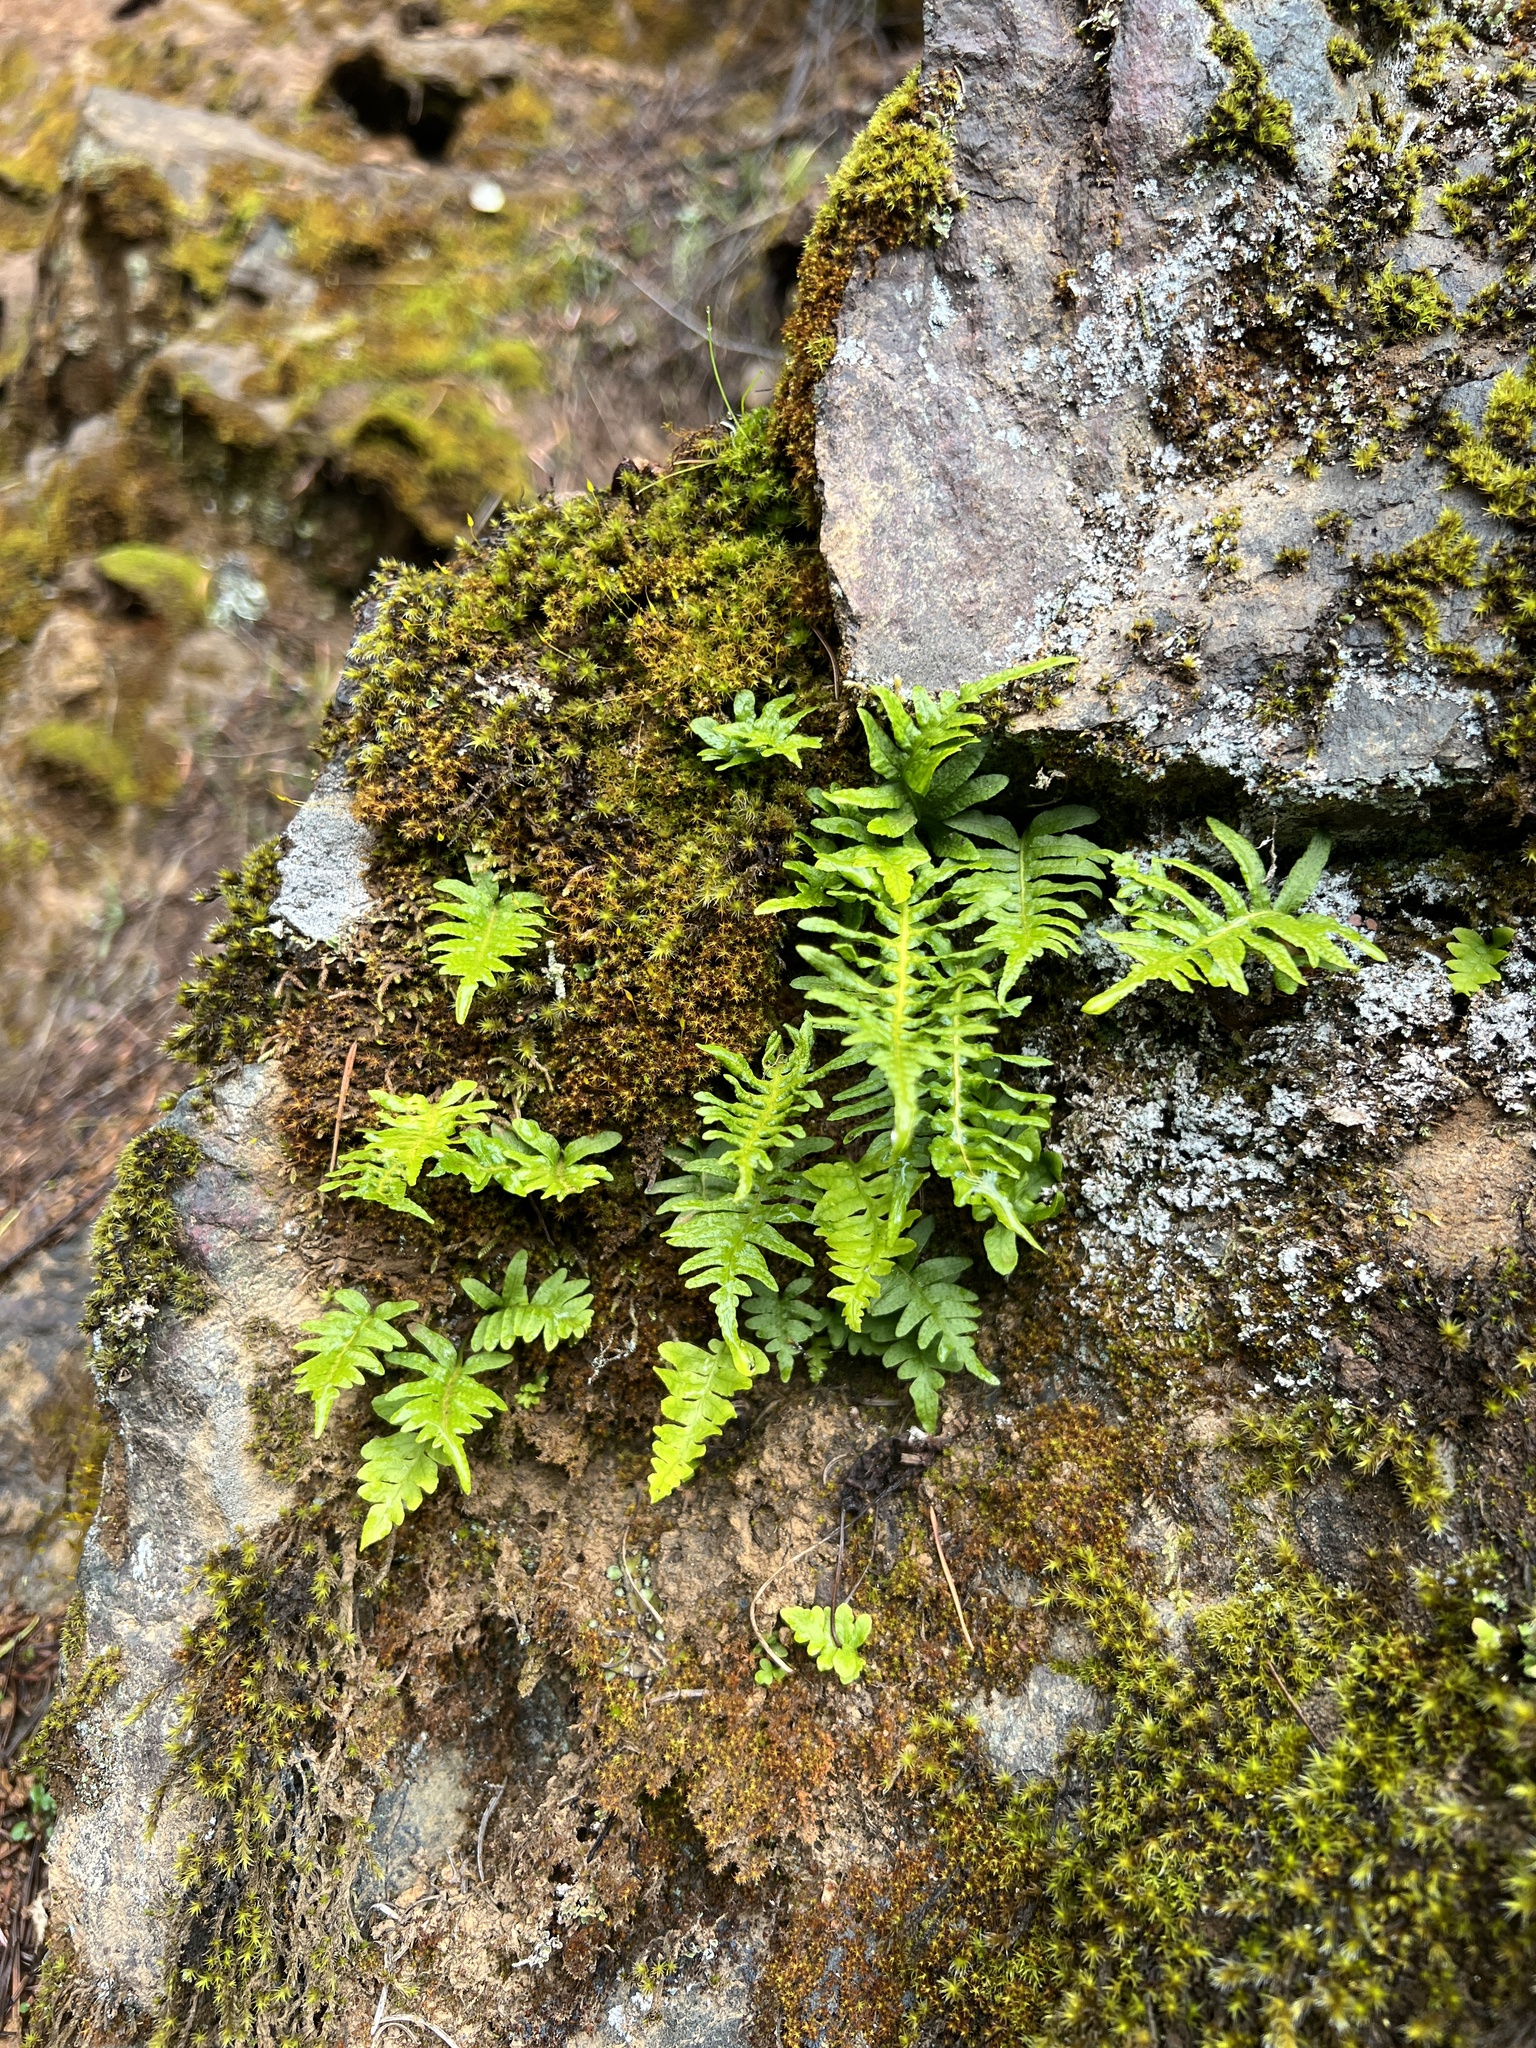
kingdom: Plantae
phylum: Tracheophyta
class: Polypodiopsida
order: Polypodiales
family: Polypodiaceae
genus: Polypodium
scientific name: Polypodium glycyrrhiza
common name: Licorice fern
